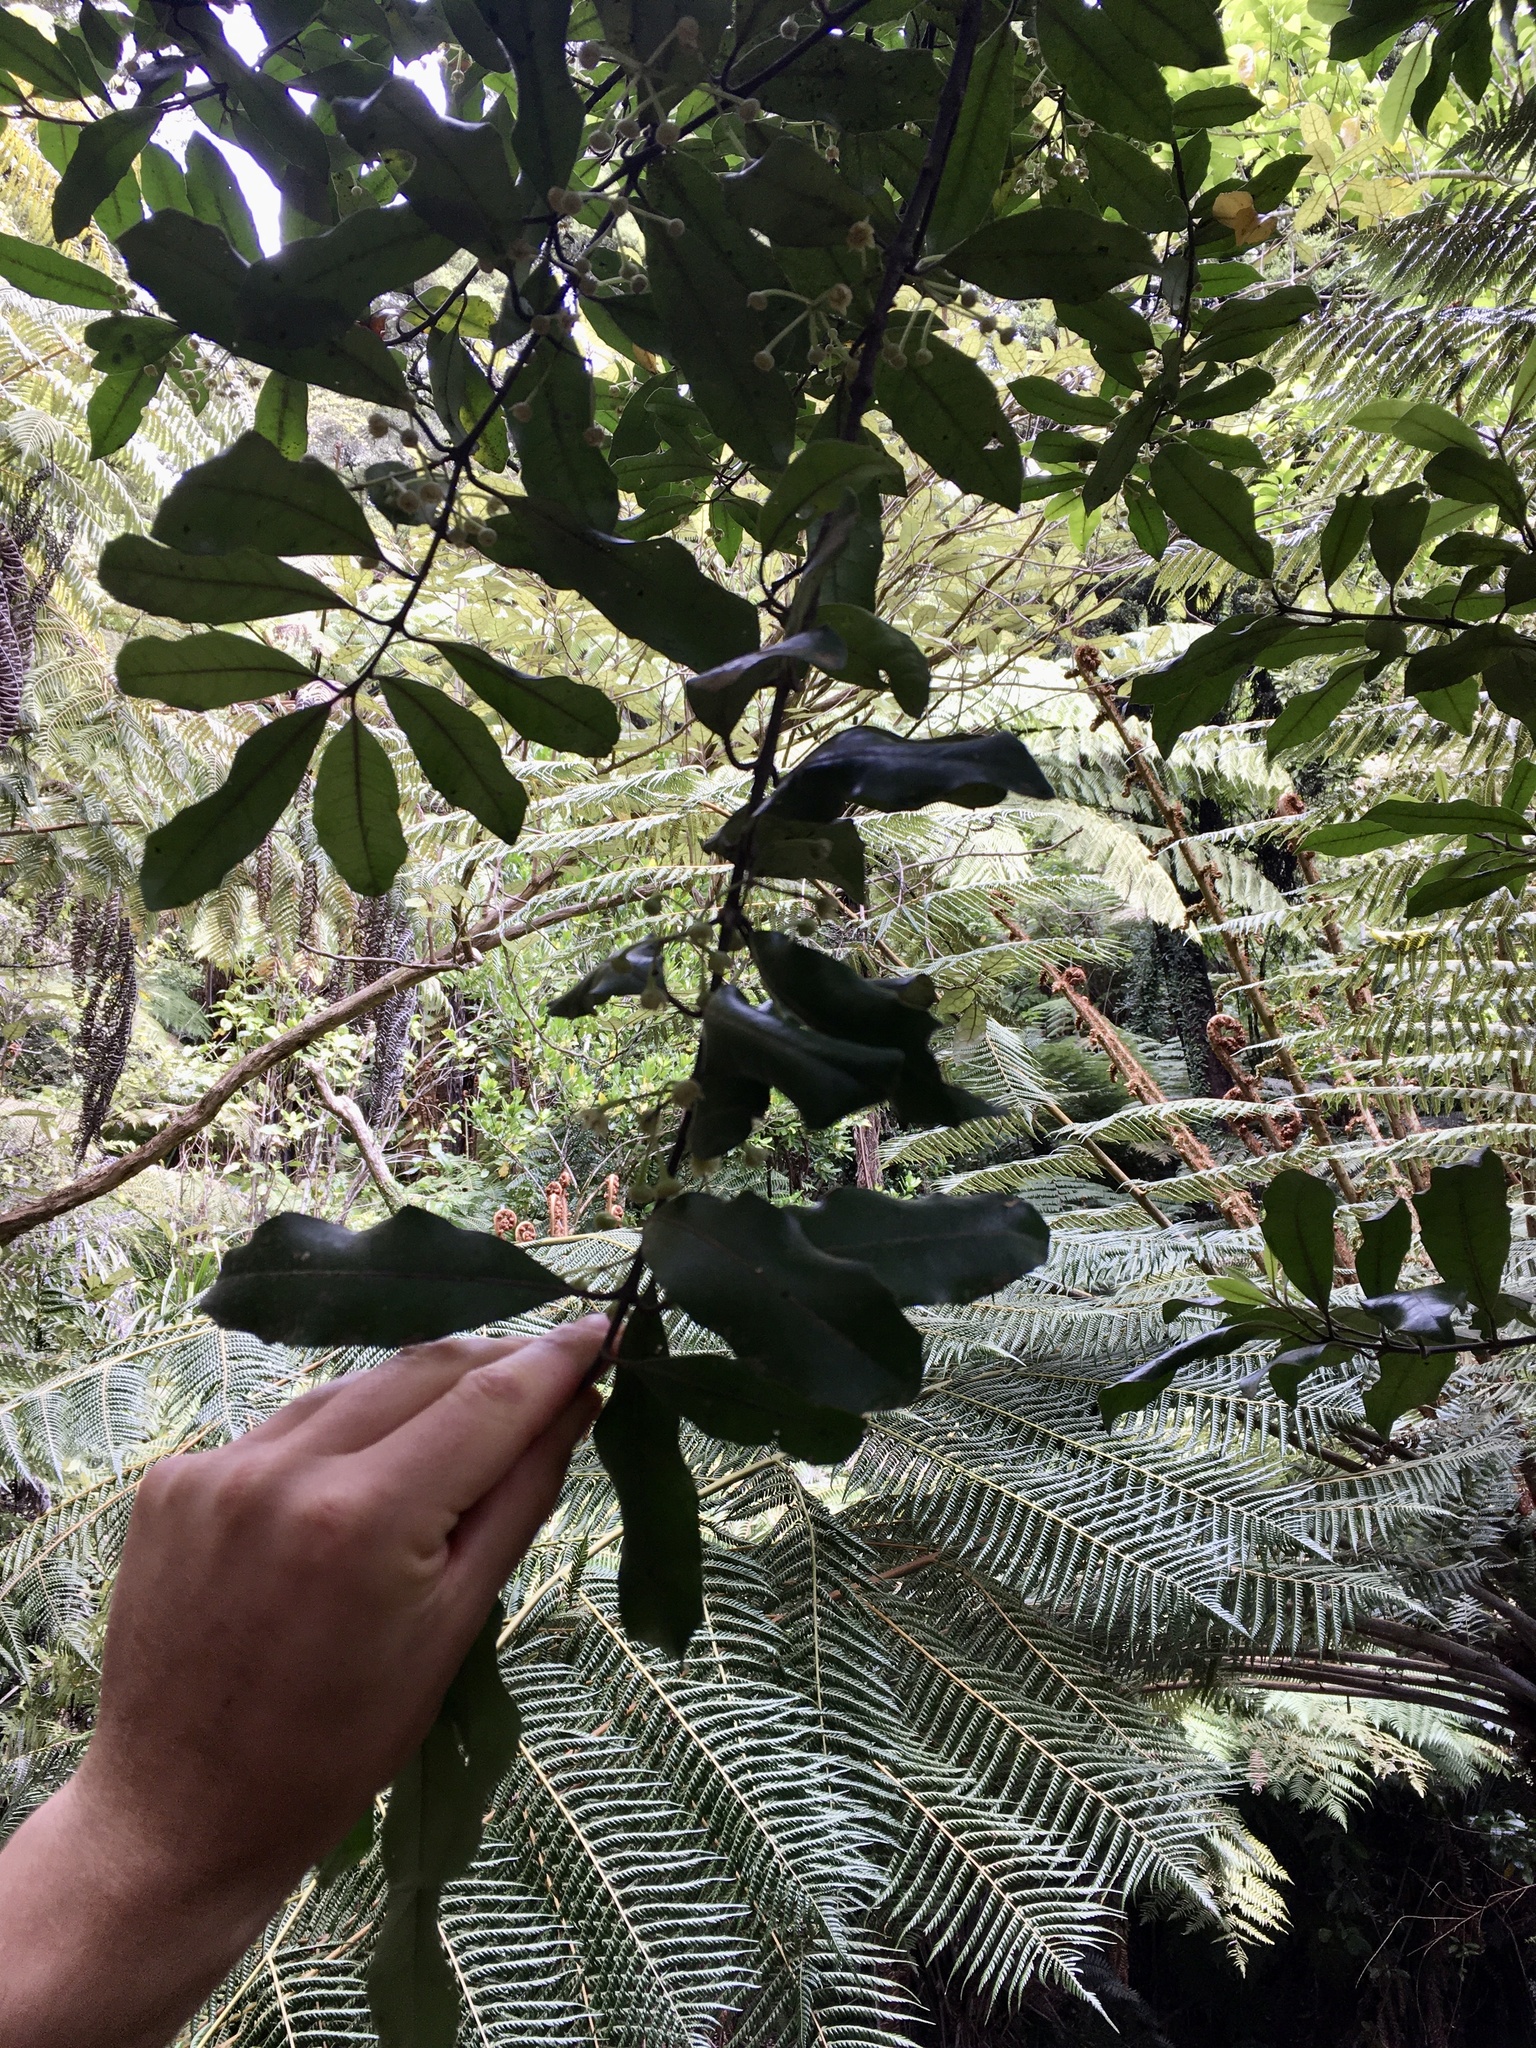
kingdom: Plantae
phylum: Tracheophyta
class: Magnoliopsida
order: Laurales
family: Monimiaceae
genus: Hedycarya
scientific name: Hedycarya arborea
